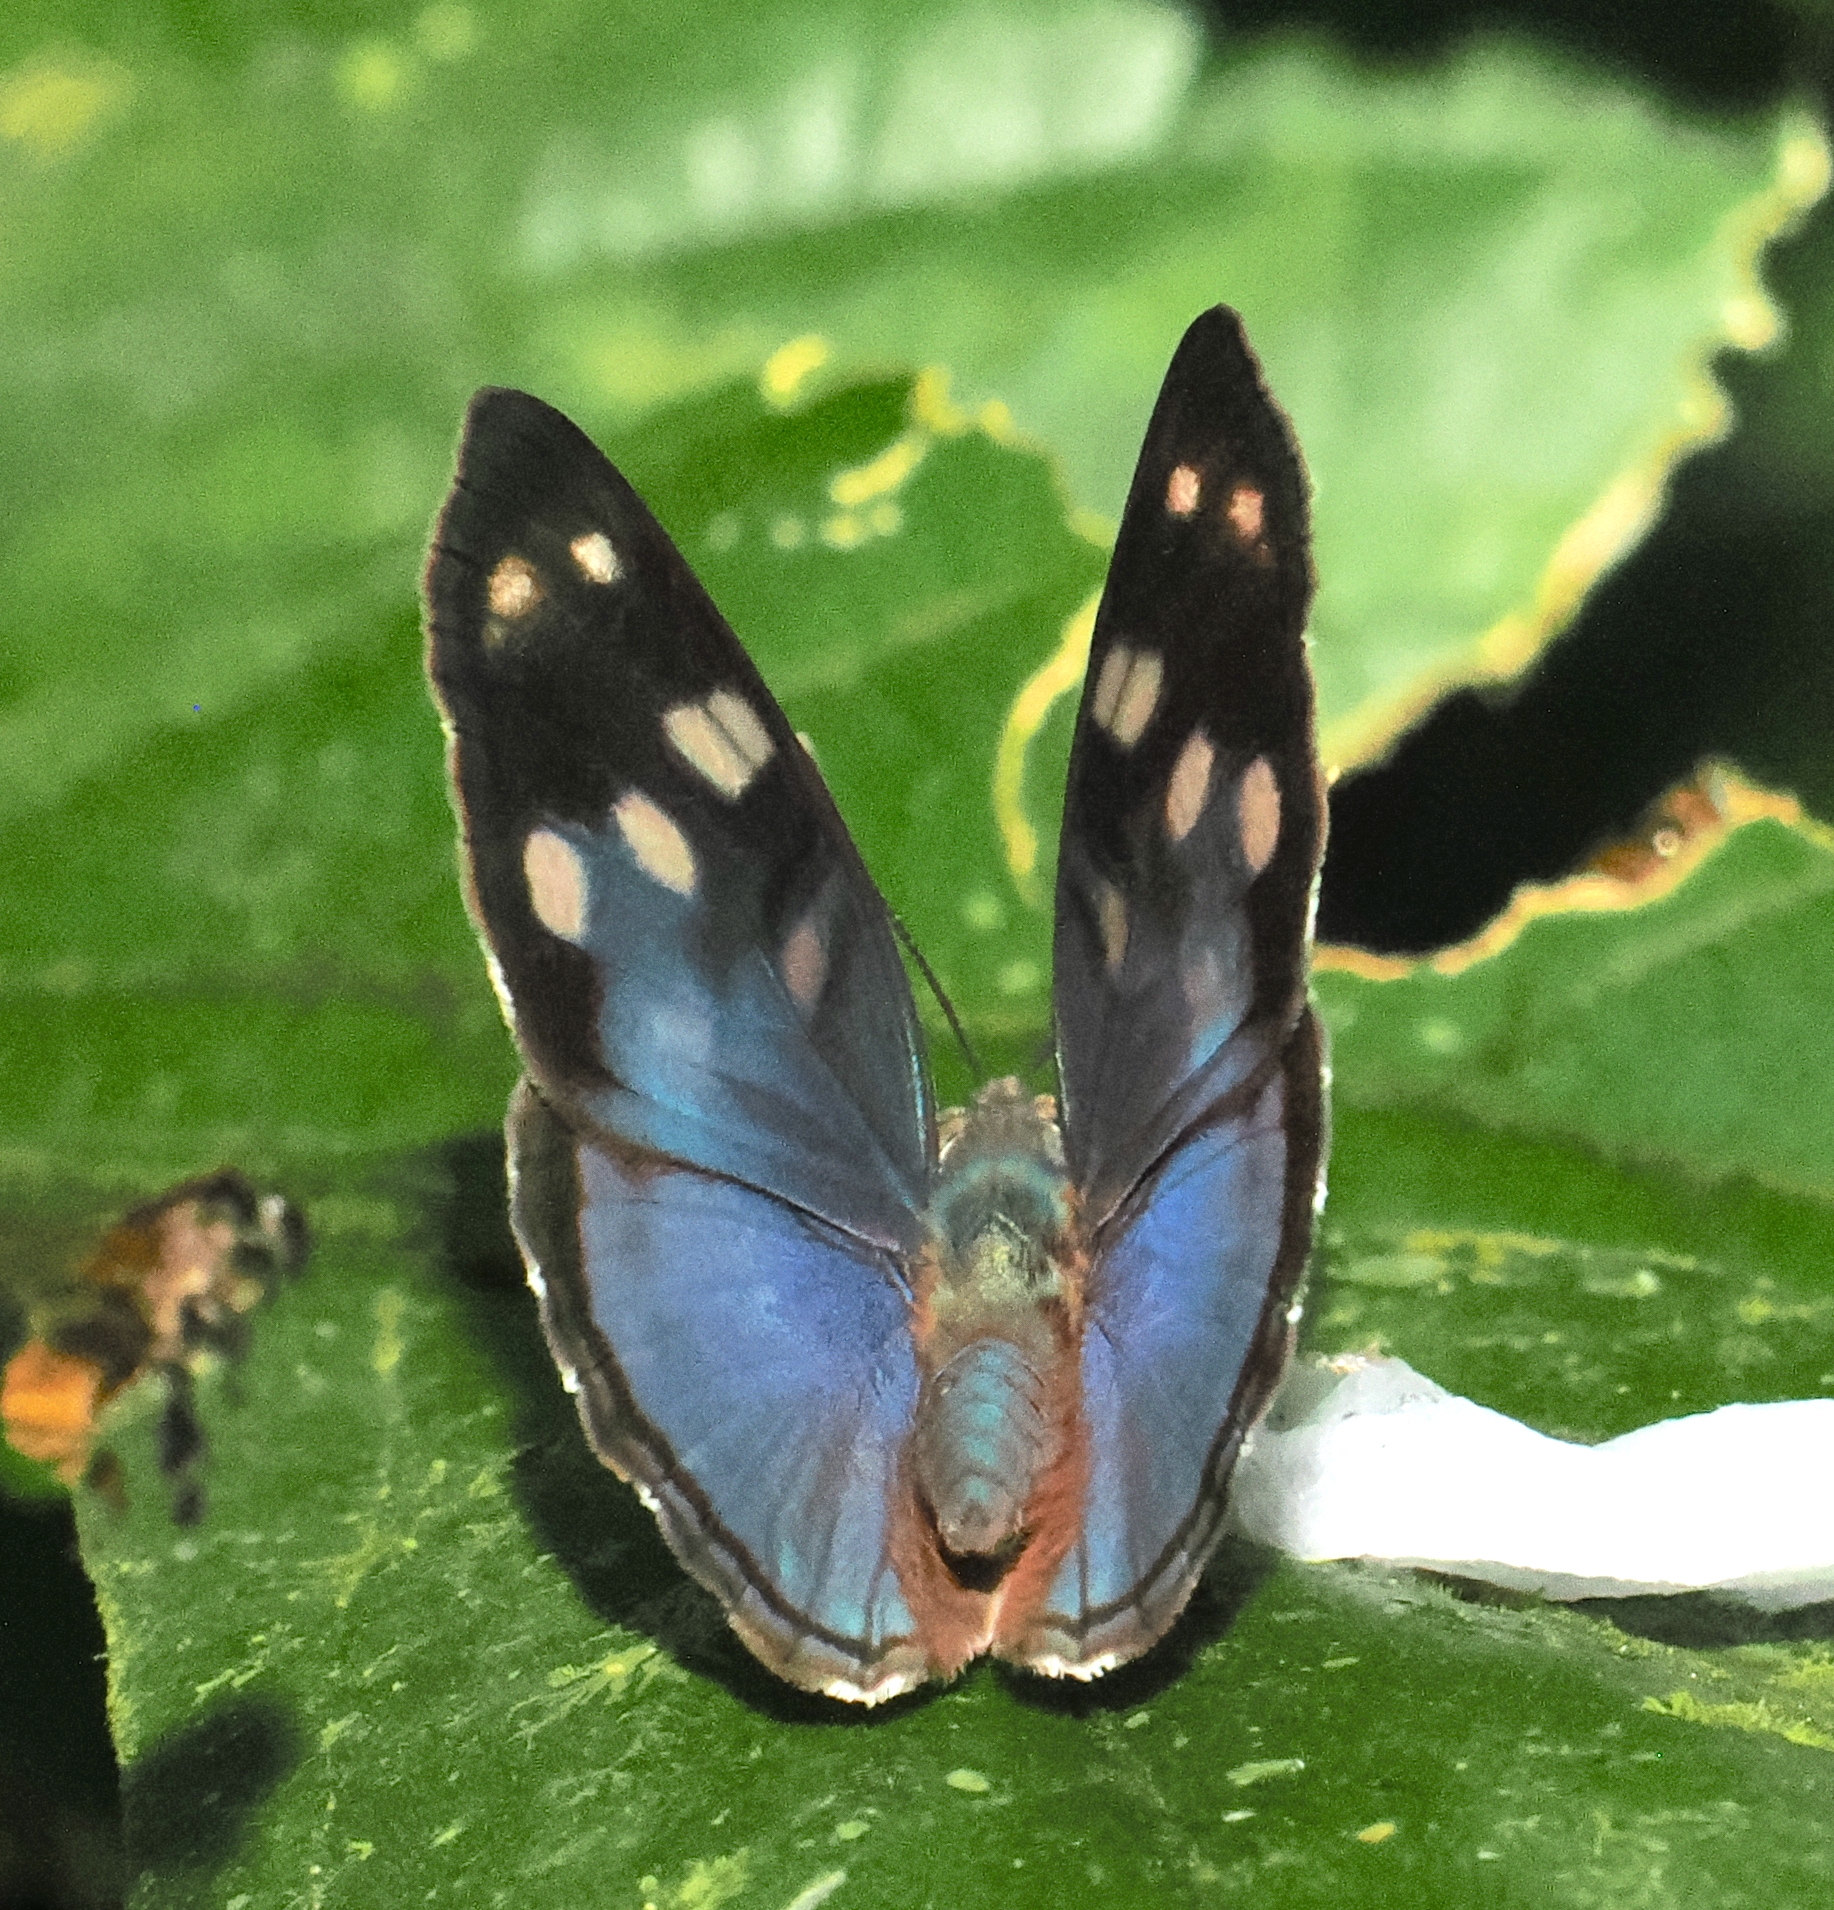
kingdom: Animalia
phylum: Arthropoda
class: Insecta
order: Lepidoptera
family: Nymphalidae
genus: Dynamine
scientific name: Dynamine racidula
